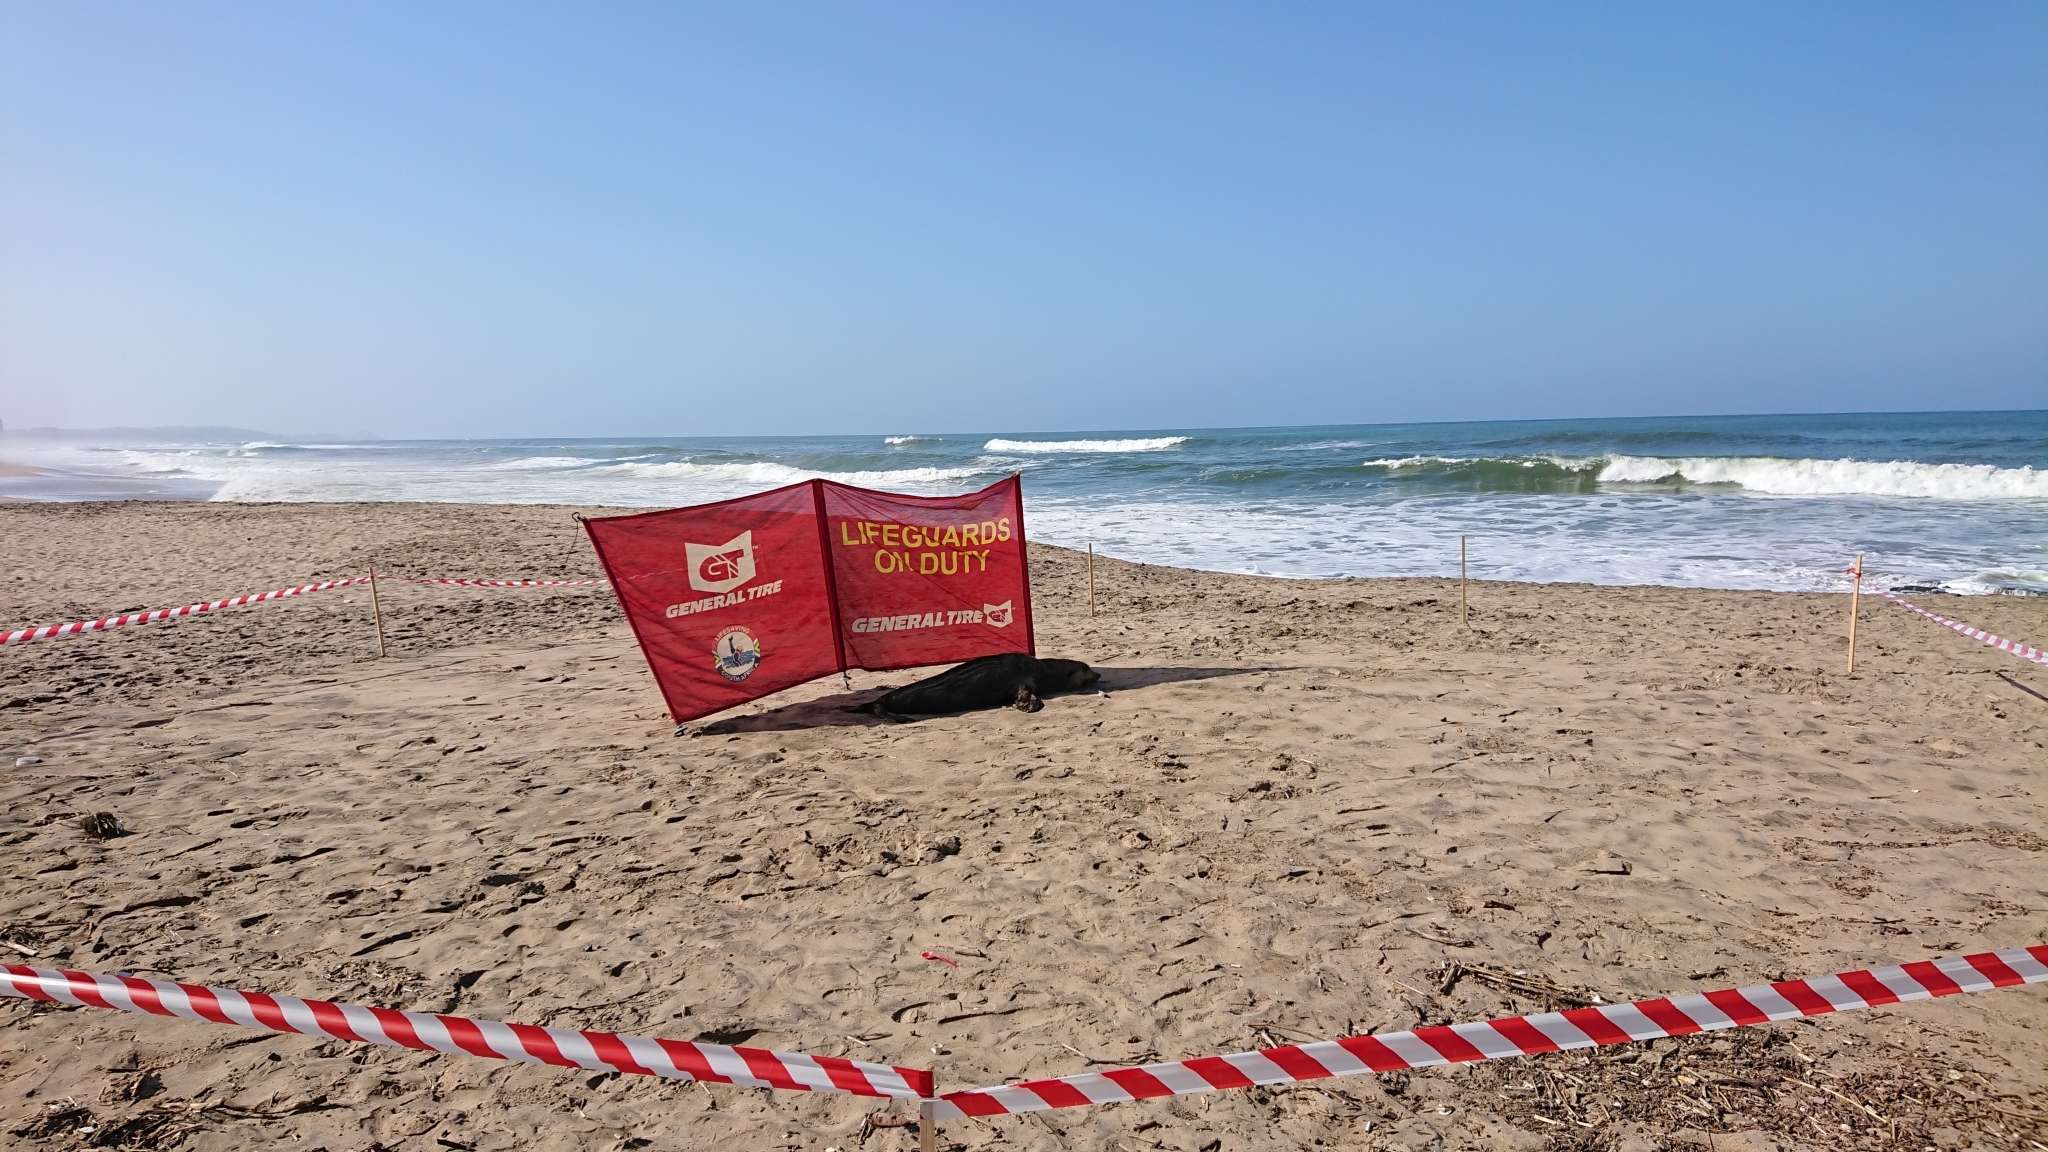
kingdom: Animalia
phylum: Chordata
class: Mammalia
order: Carnivora
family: Otariidae
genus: Arctocephalus
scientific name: Arctocephalus tropicalis
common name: Subantarctic fur seal
